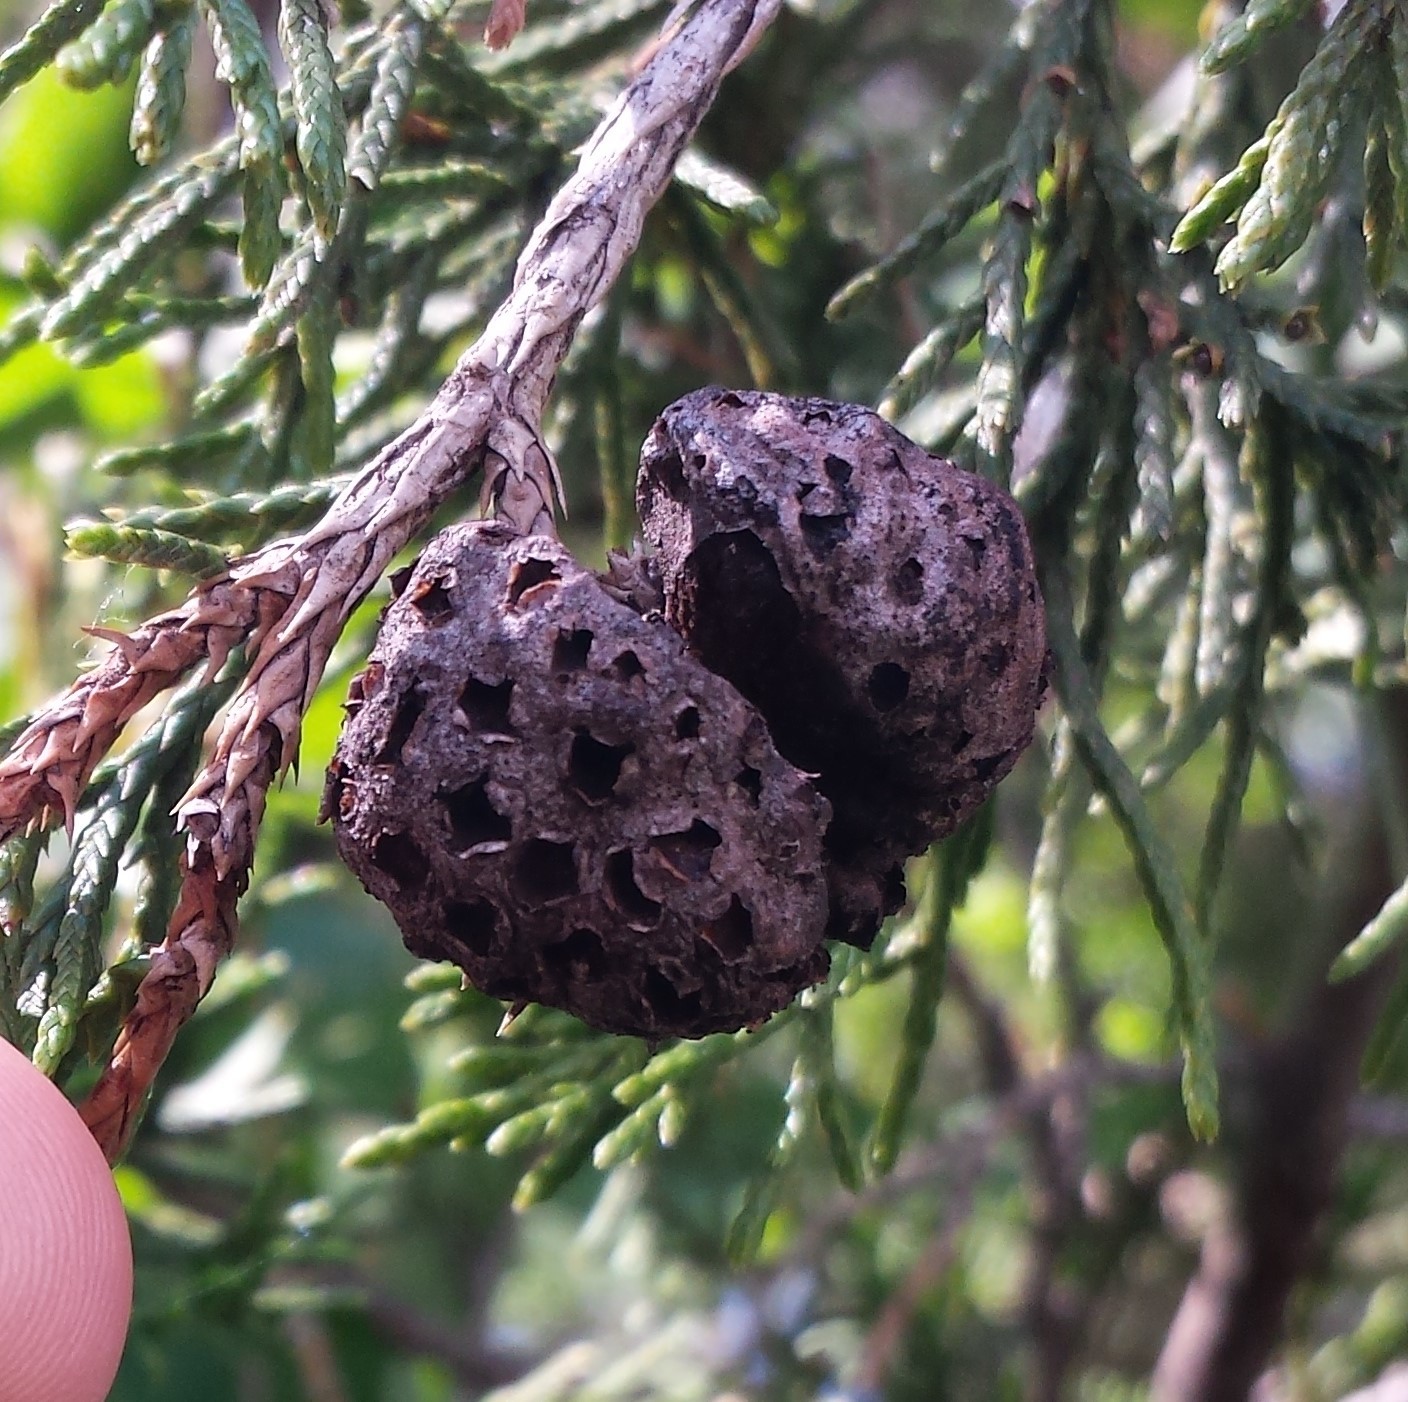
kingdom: Fungi
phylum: Basidiomycota
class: Pucciniomycetes
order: Pucciniales
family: Gymnosporangiaceae
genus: Gymnosporangium
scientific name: Gymnosporangium juniperi-virginianae
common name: Juniper-apple rust
